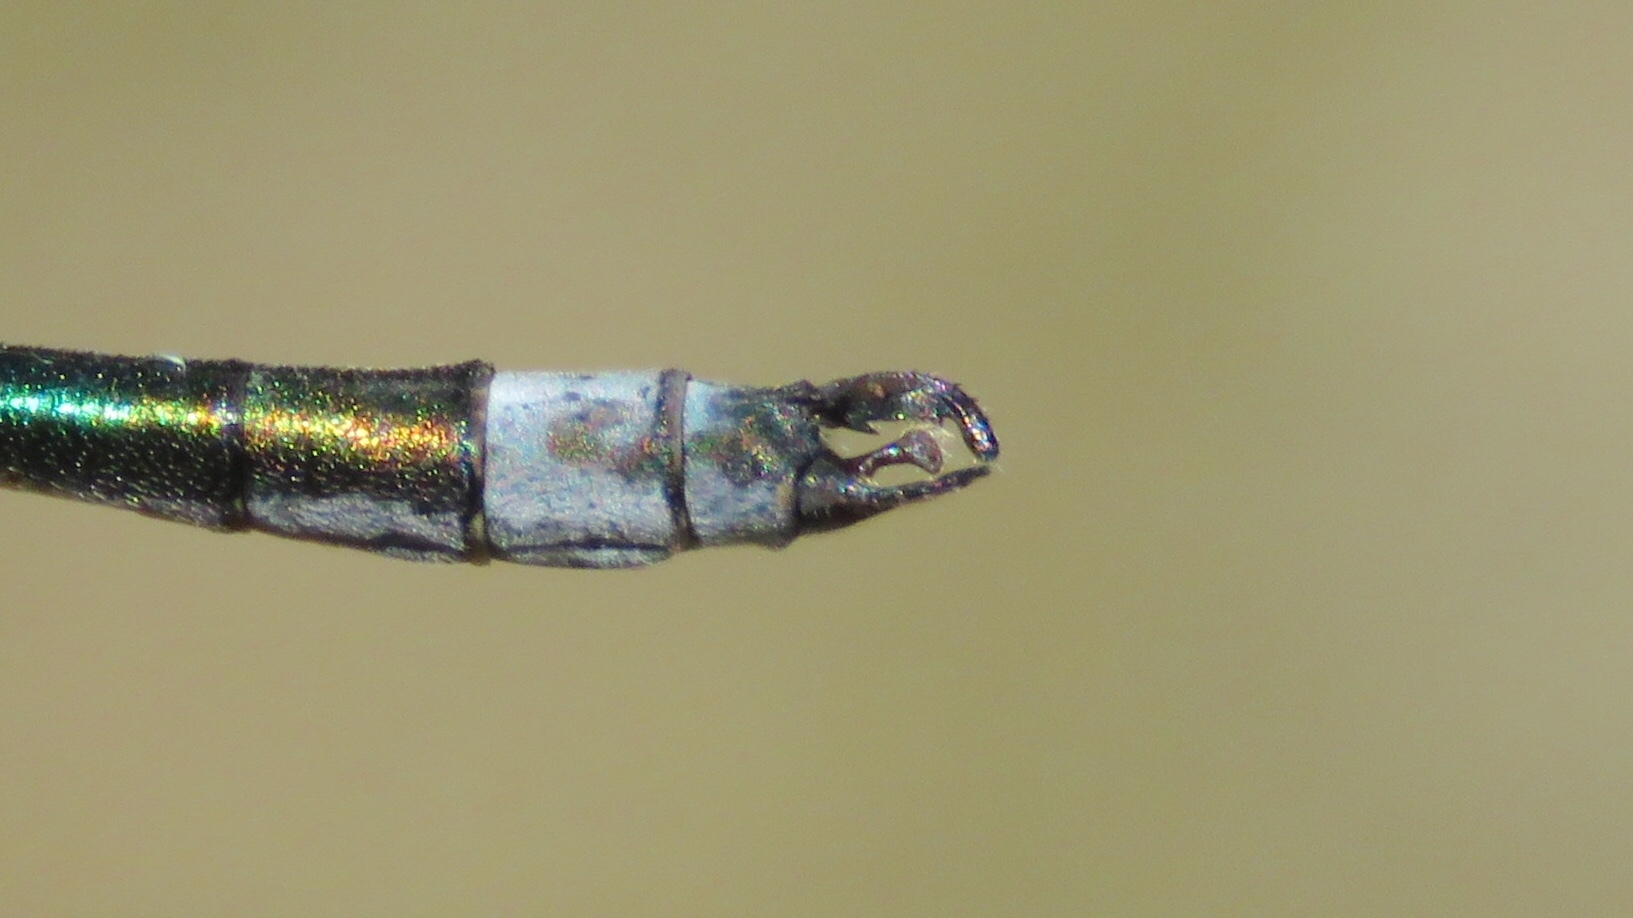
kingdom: Animalia
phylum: Arthropoda
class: Insecta
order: Odonata
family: Lestidae
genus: Lestes
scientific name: Lestes dryas
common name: Scarce emerald damselfly
